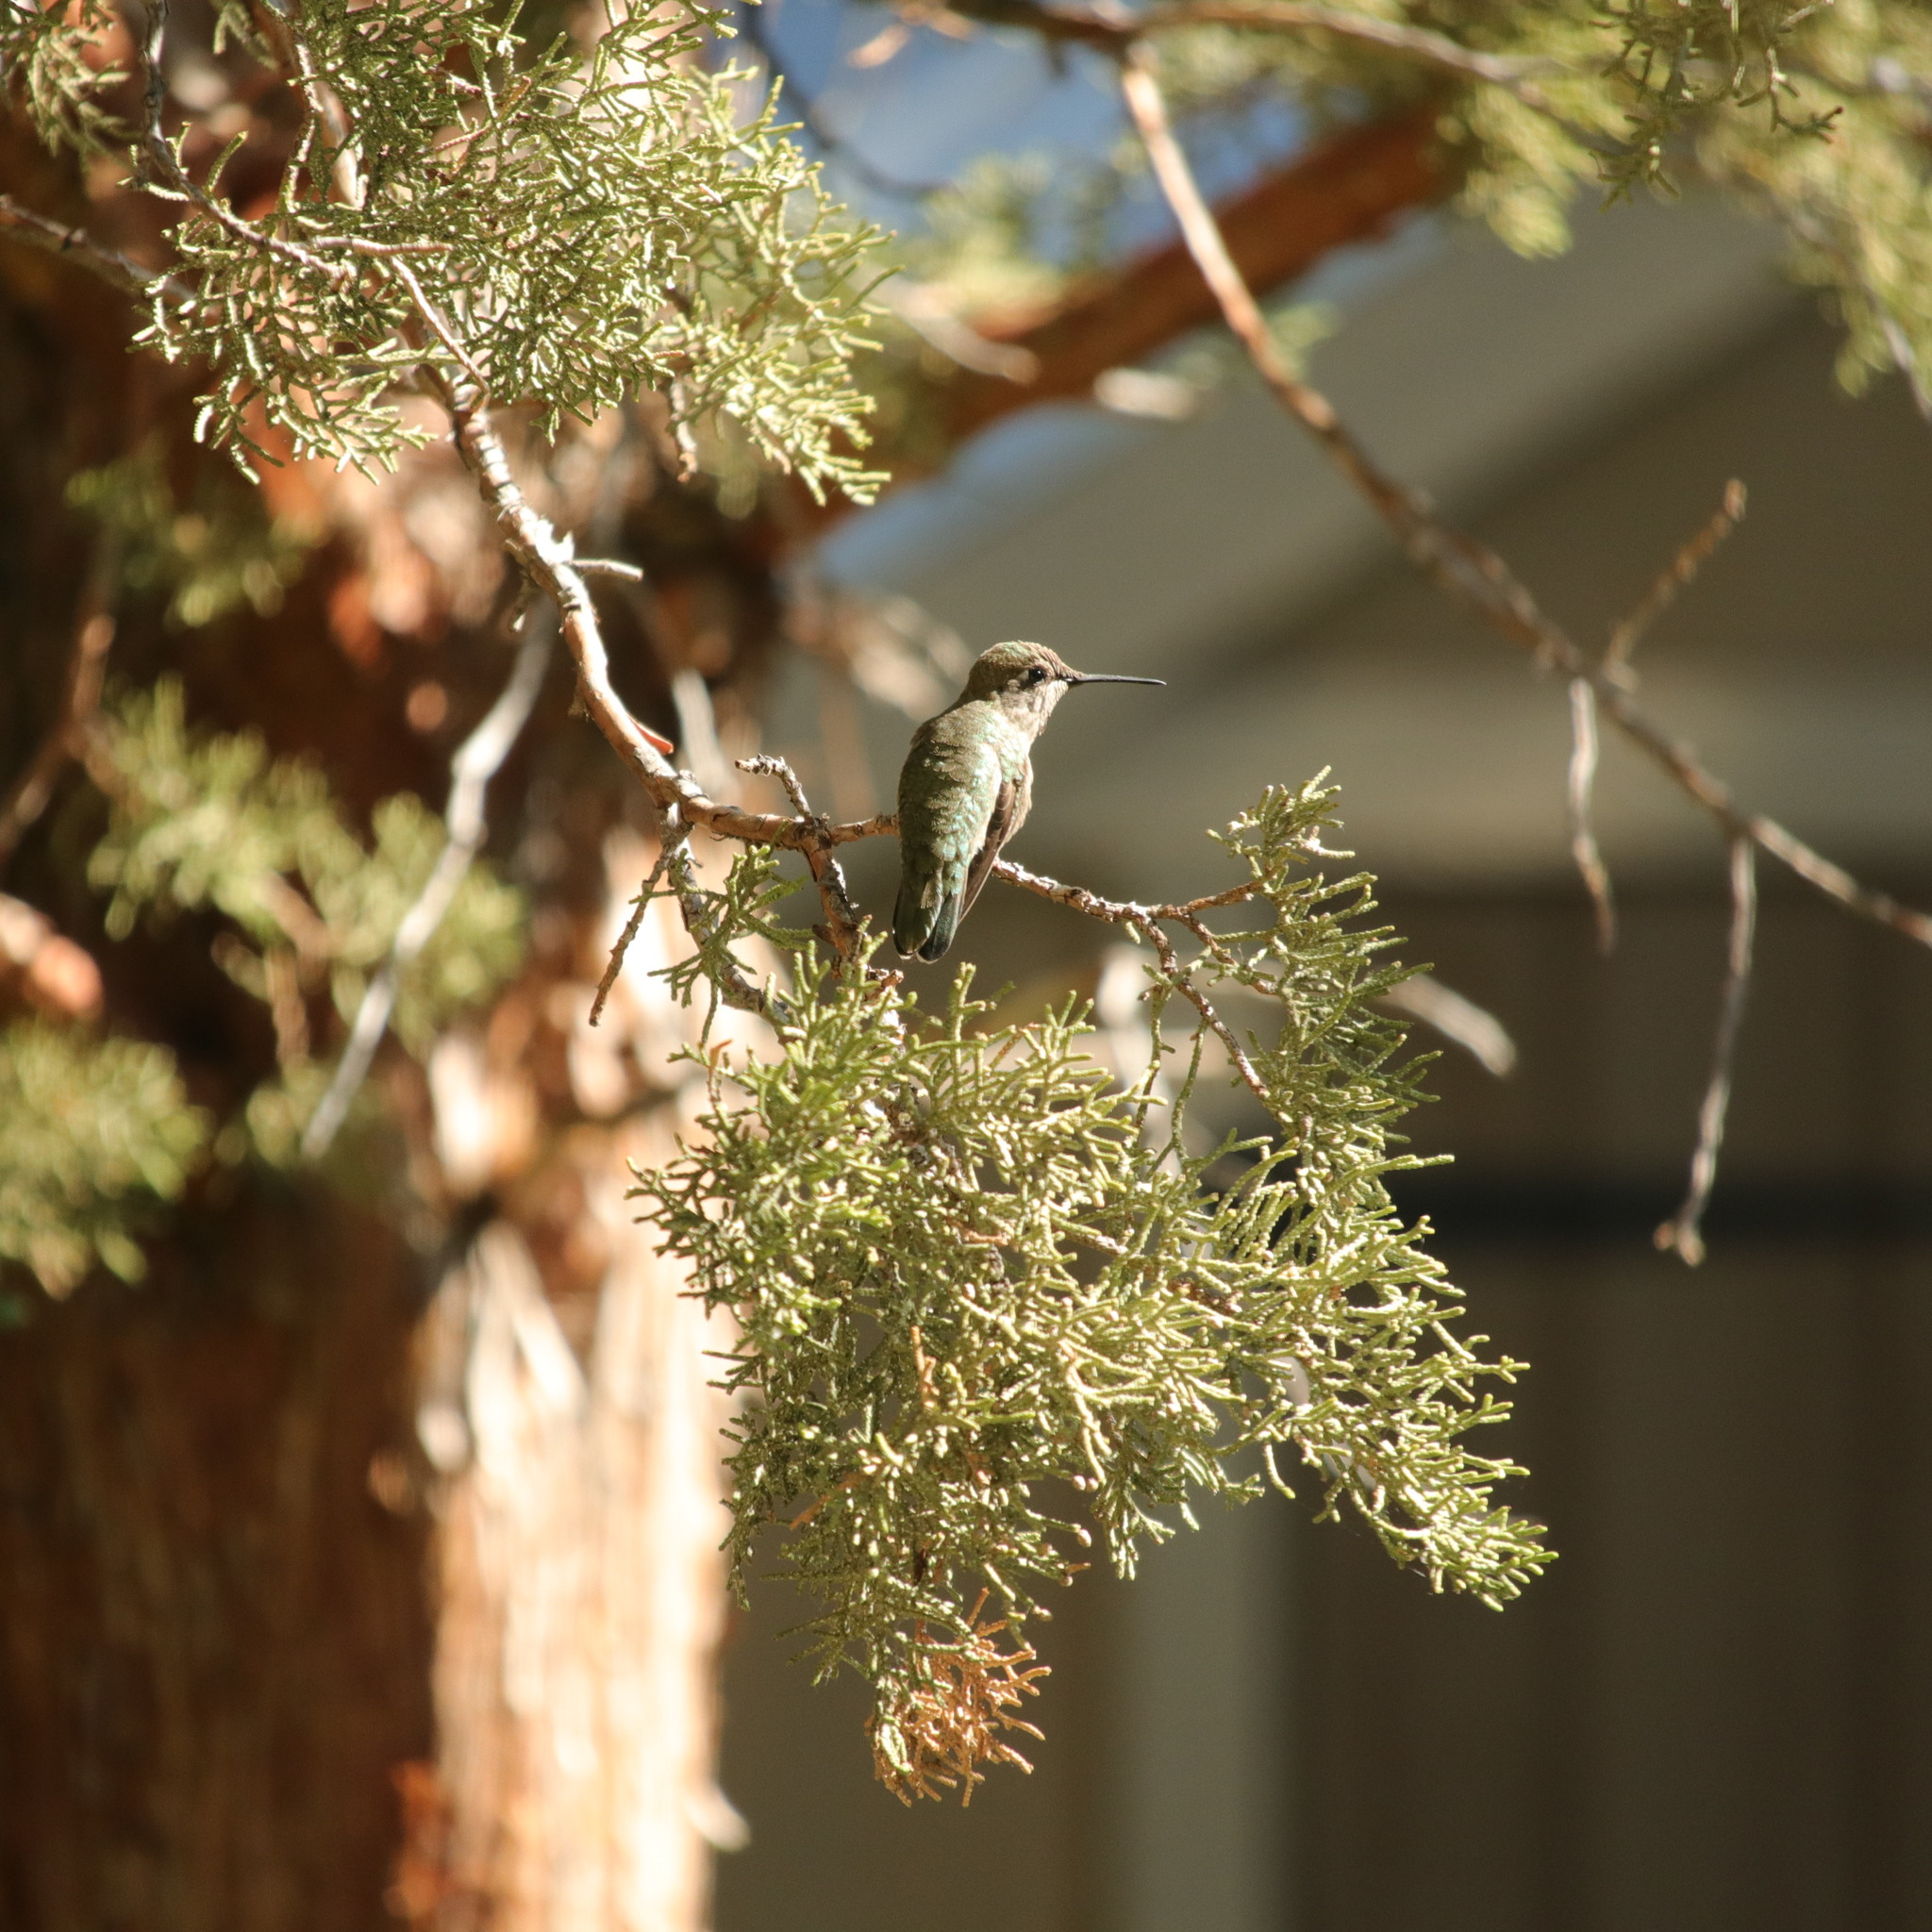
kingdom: Animalia
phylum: Chordata
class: Aves
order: Apodiformes
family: Trochilidae
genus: Calypte
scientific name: Calypte anna
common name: Anna's hummingbird
